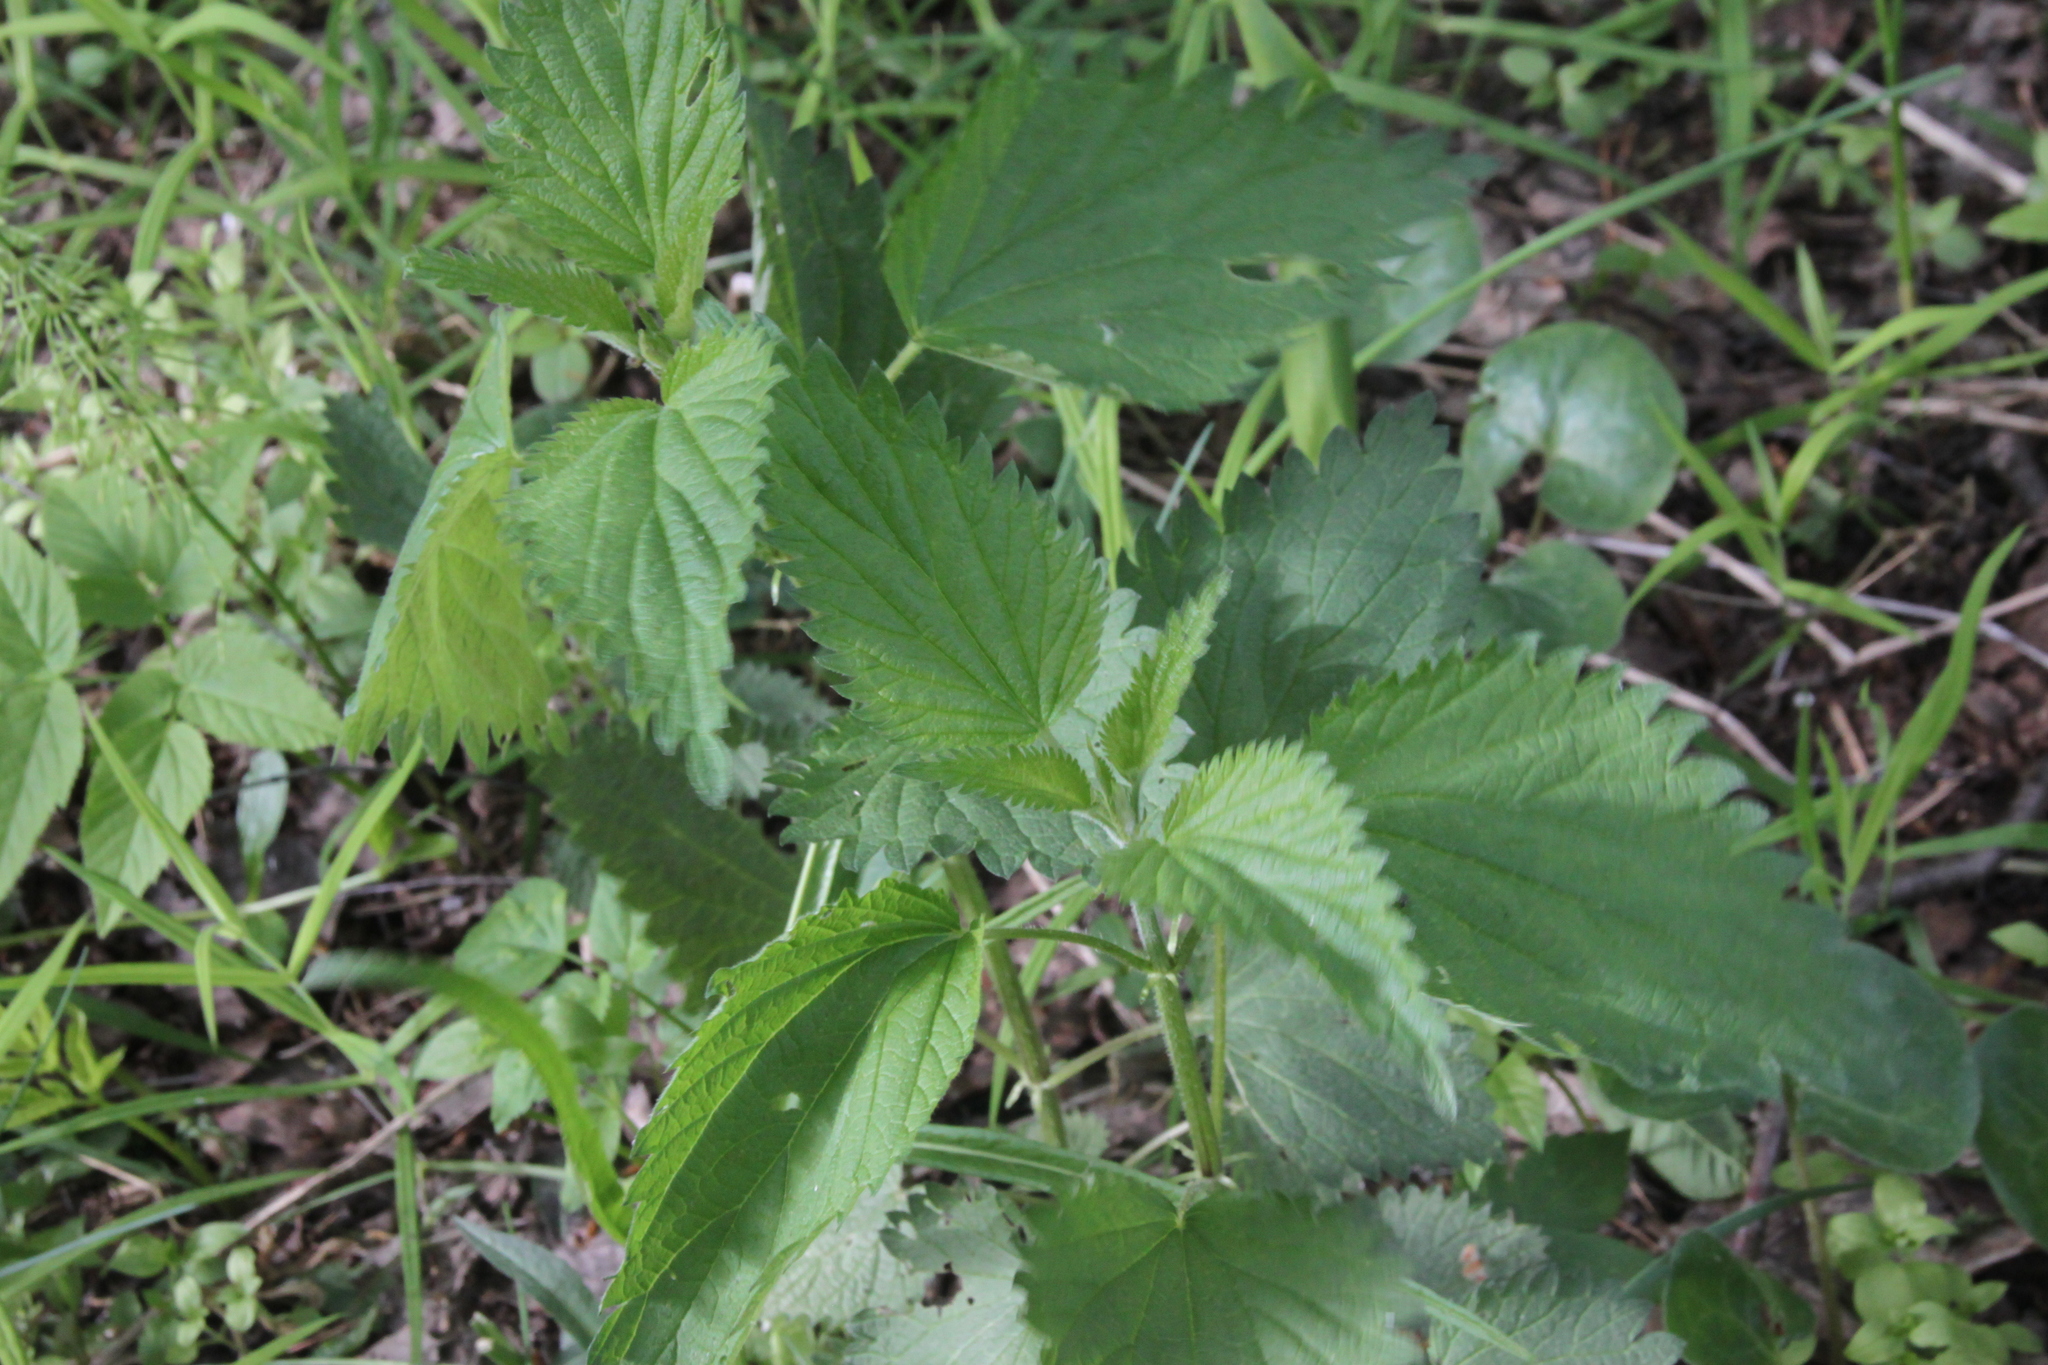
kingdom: Plantae
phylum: Tracheophyta
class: Magnoliopsida
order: Rosales
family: Urticaceae
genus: Urtica
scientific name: Urtica dioica
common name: Common nettle
